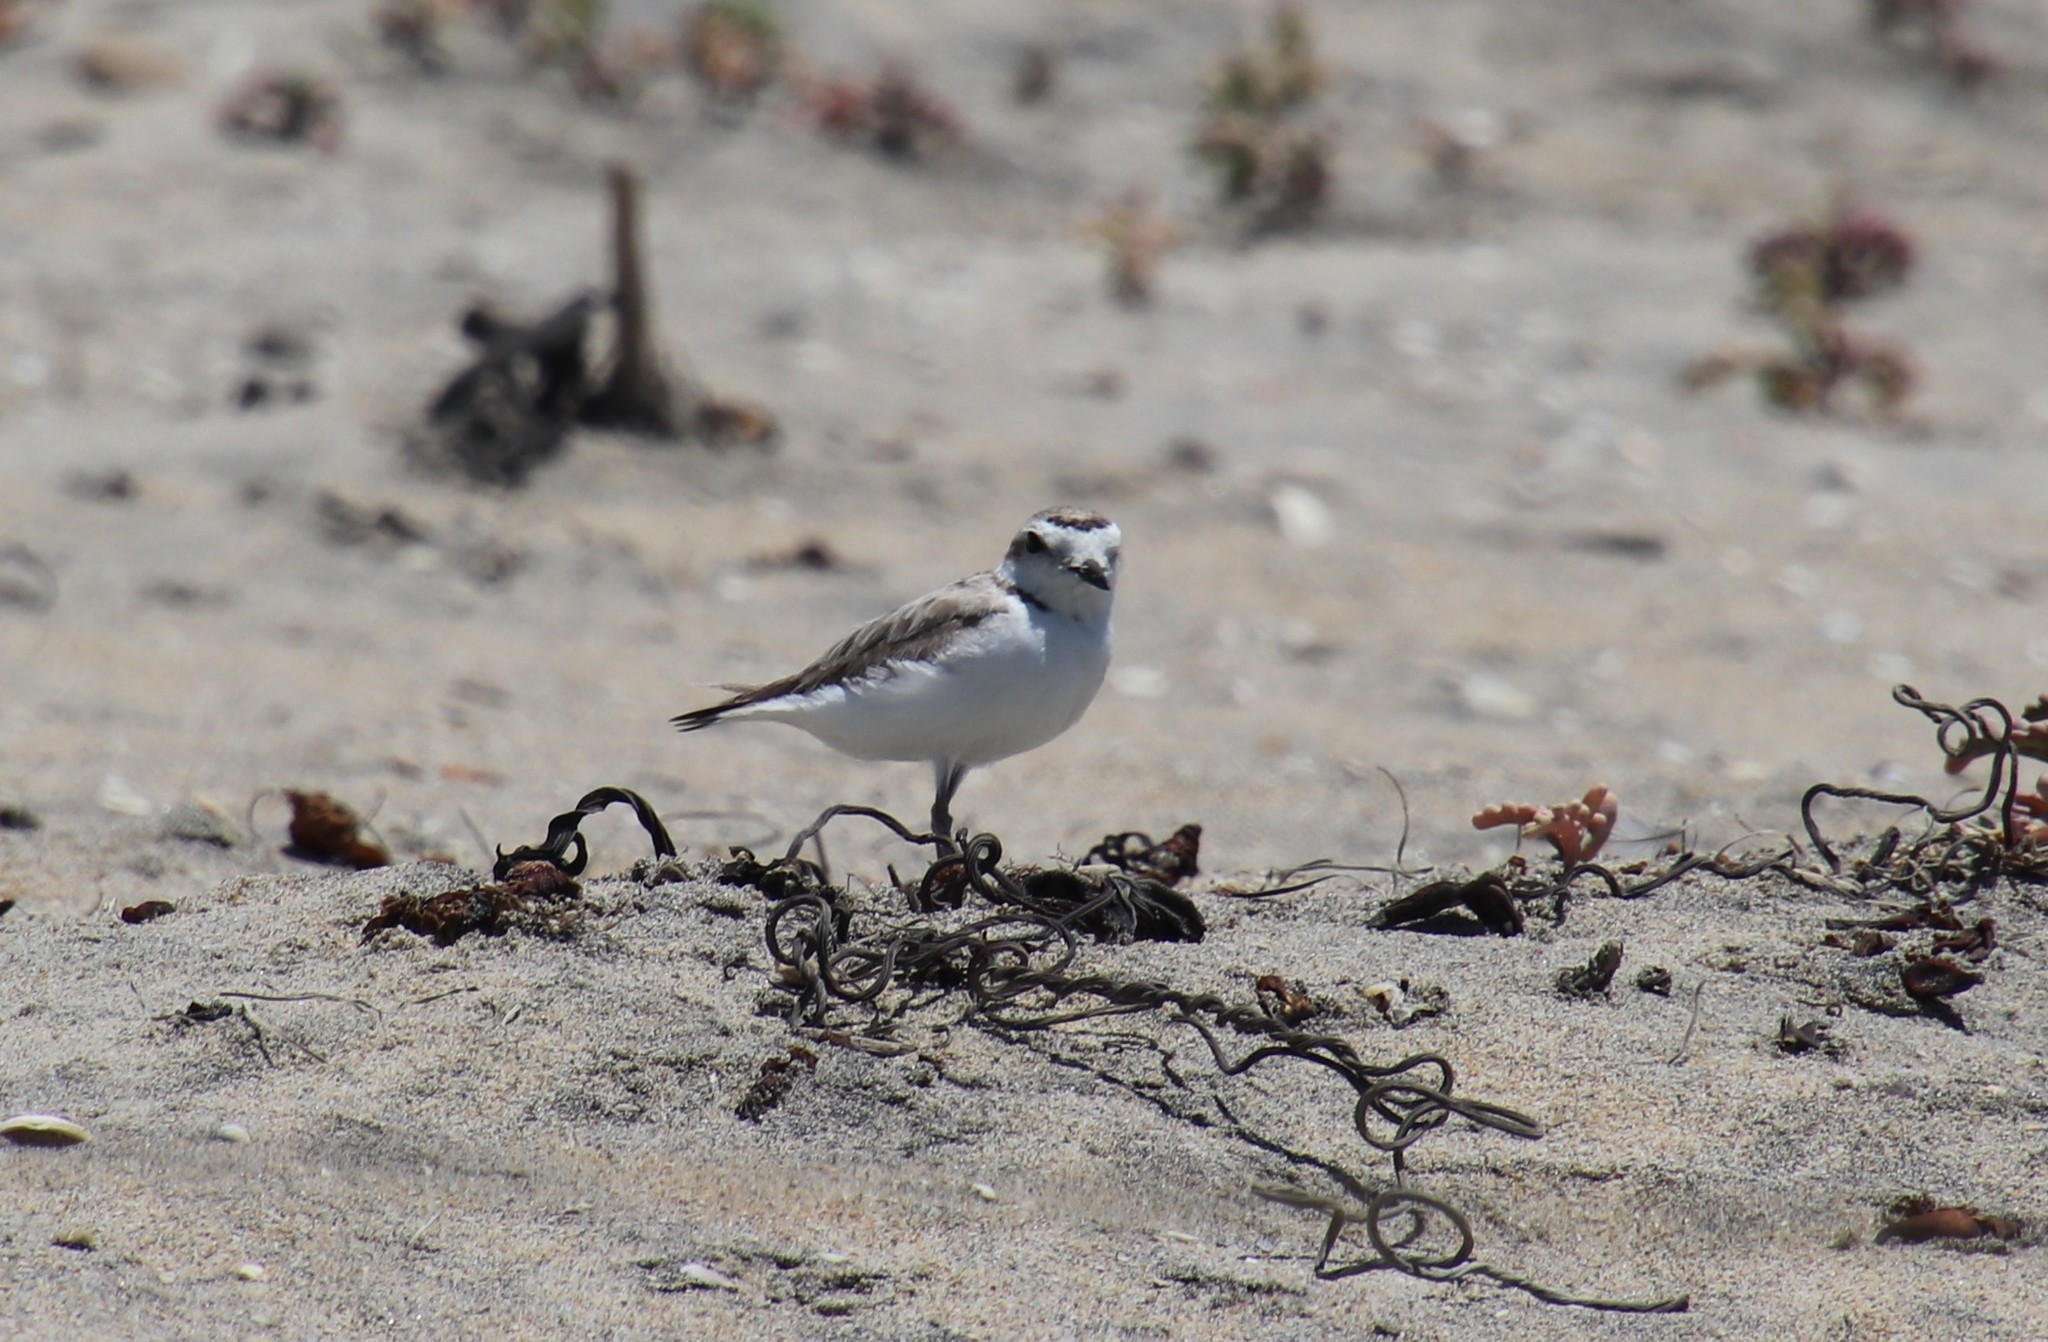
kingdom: Animalia
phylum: Chordata
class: Aves
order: Charadriiformes
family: Charadriidae
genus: Anarhynchus
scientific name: Anarhynchus
